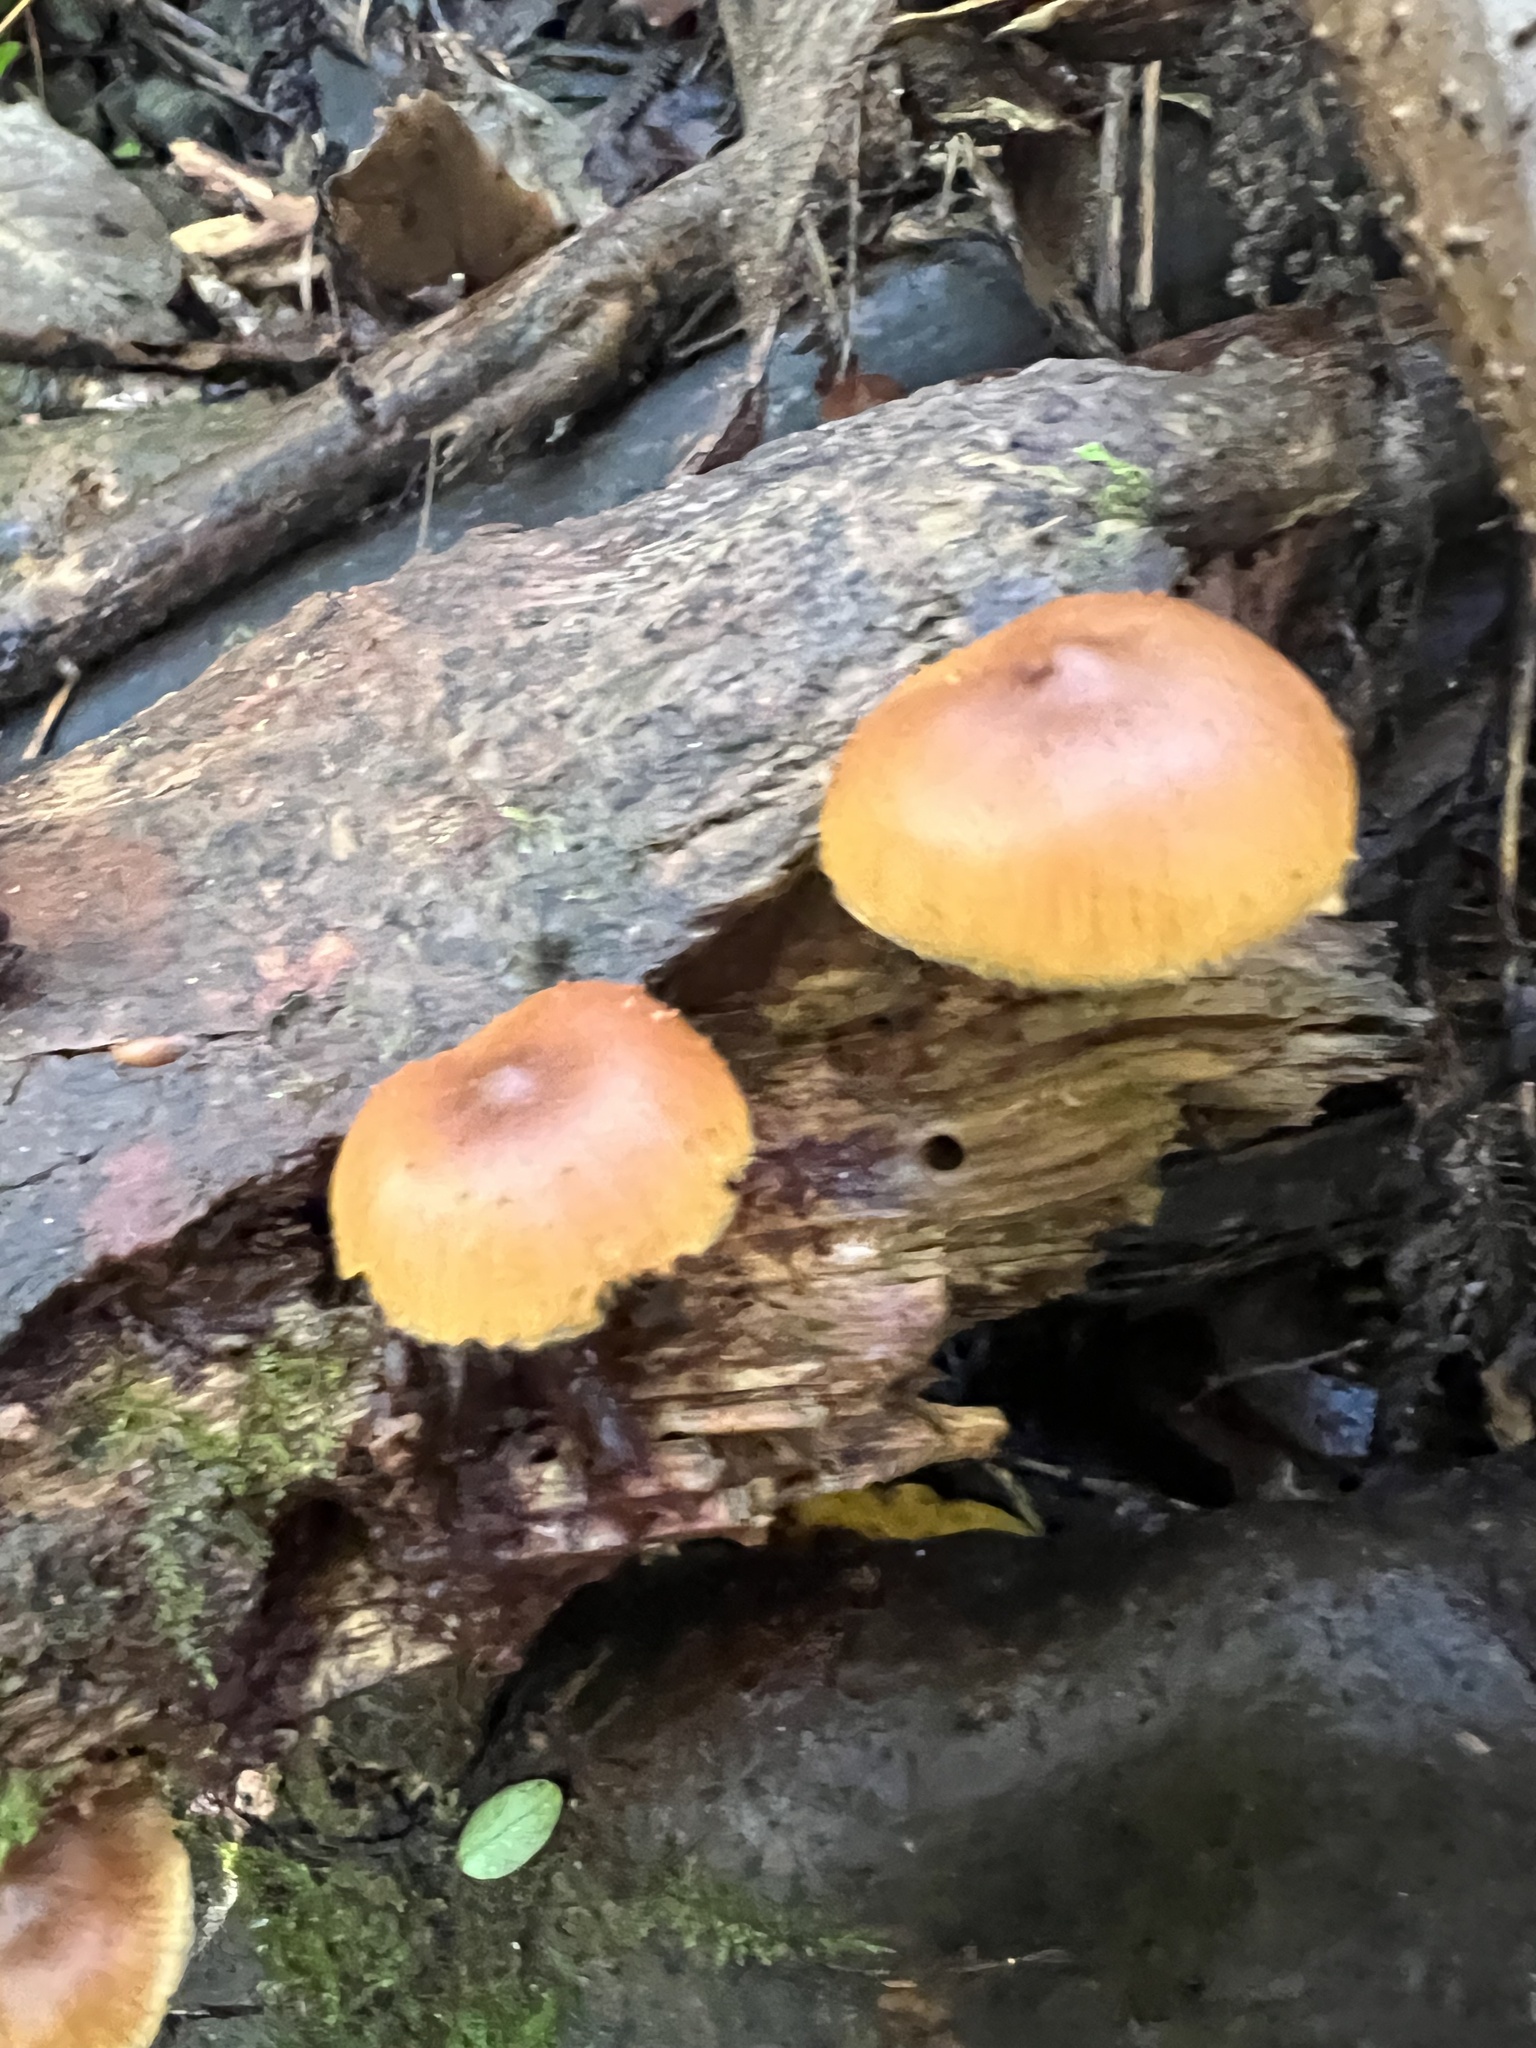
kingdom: Fungi
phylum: Basidiomycota
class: Agaricomycetes
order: Agaricales
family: Hymenogastraceae
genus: Galerina
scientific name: Galerina patagonica
